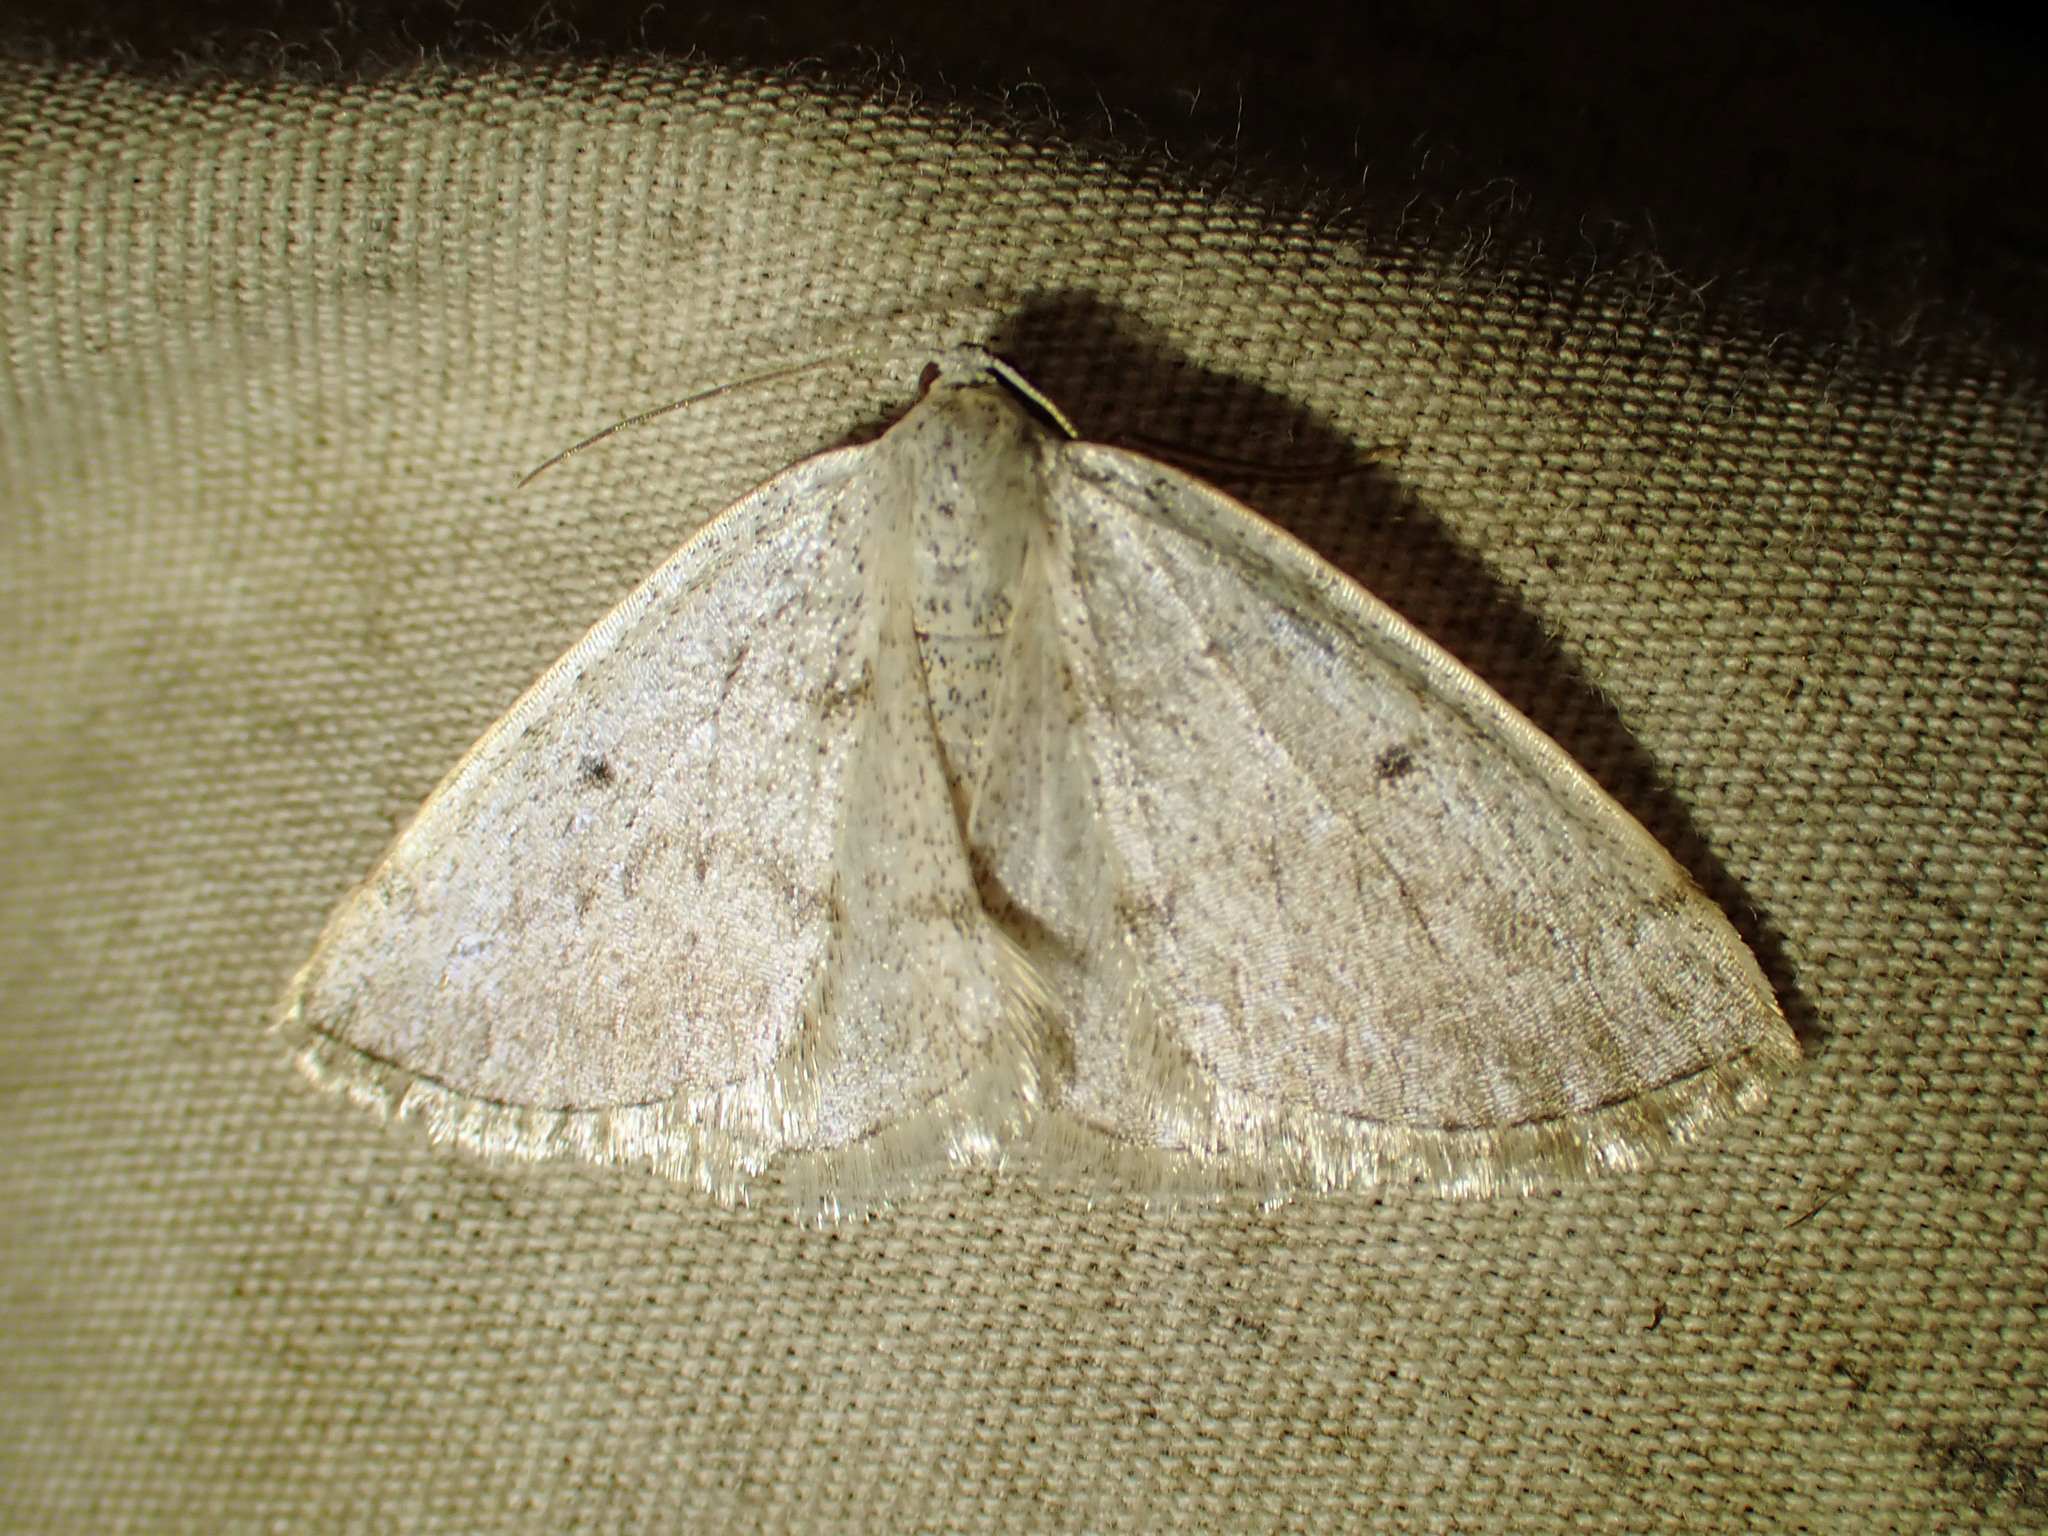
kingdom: Animalia
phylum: Arthropoda
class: Insecta
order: Lepidoptera
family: Geometridae
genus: Lomographa
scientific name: Lomographa glomeraria
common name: Gray spring moth
